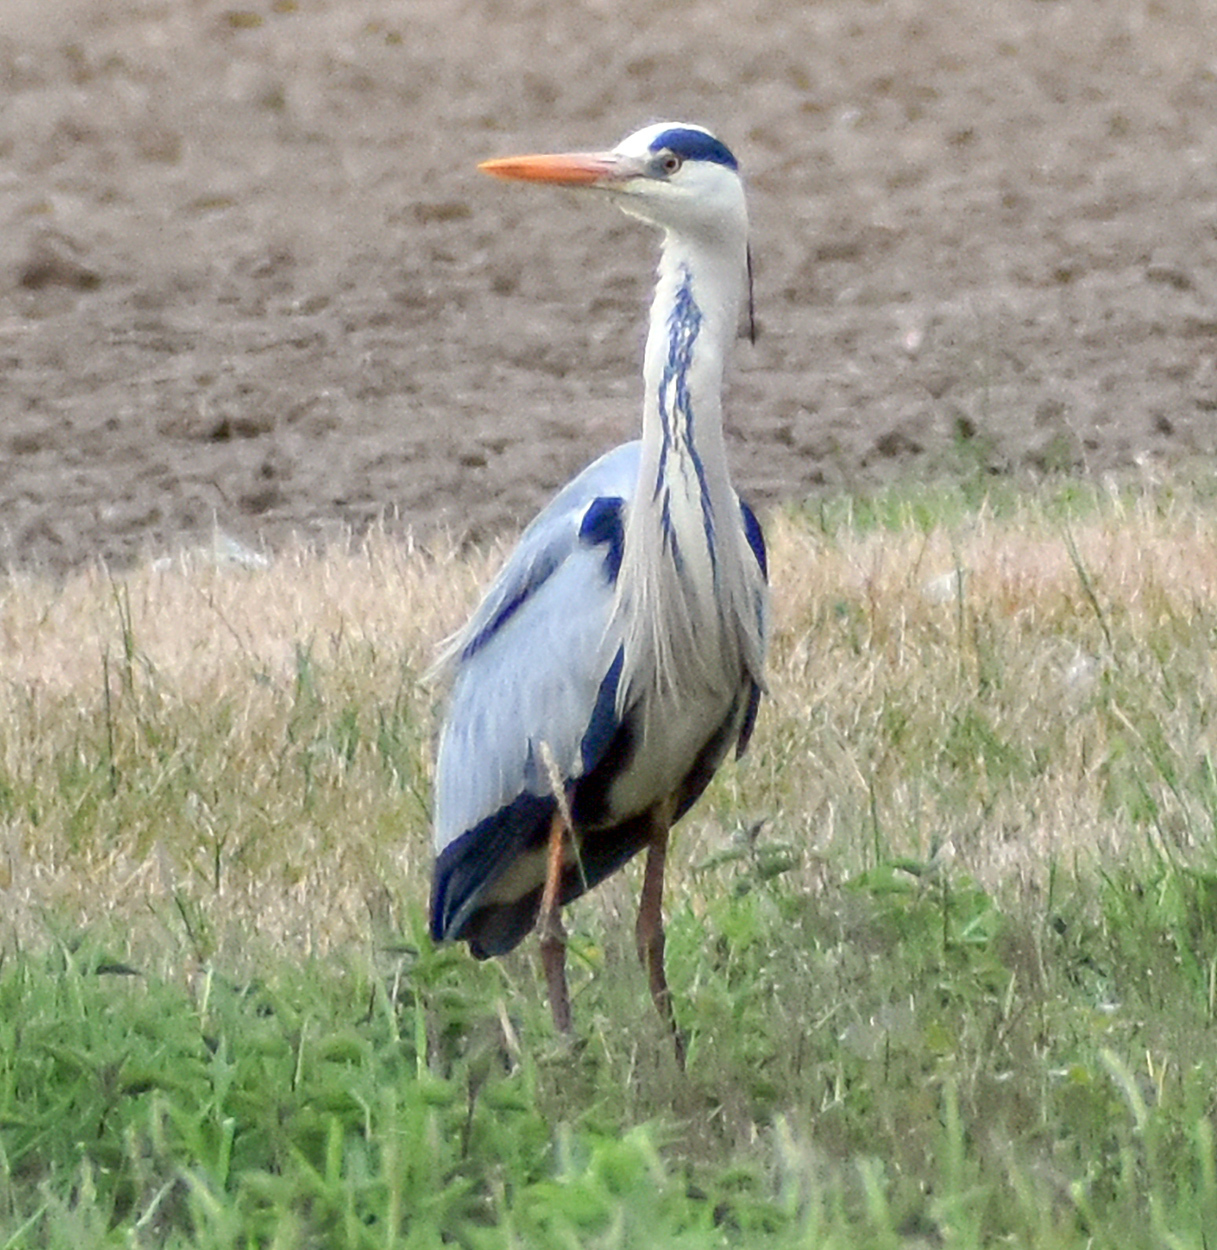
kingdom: Animalia
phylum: Chordata
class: Aves
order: Pelecaniformes
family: Ardeidae
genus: Ardea
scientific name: Ardea cinerea
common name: Grey heron
